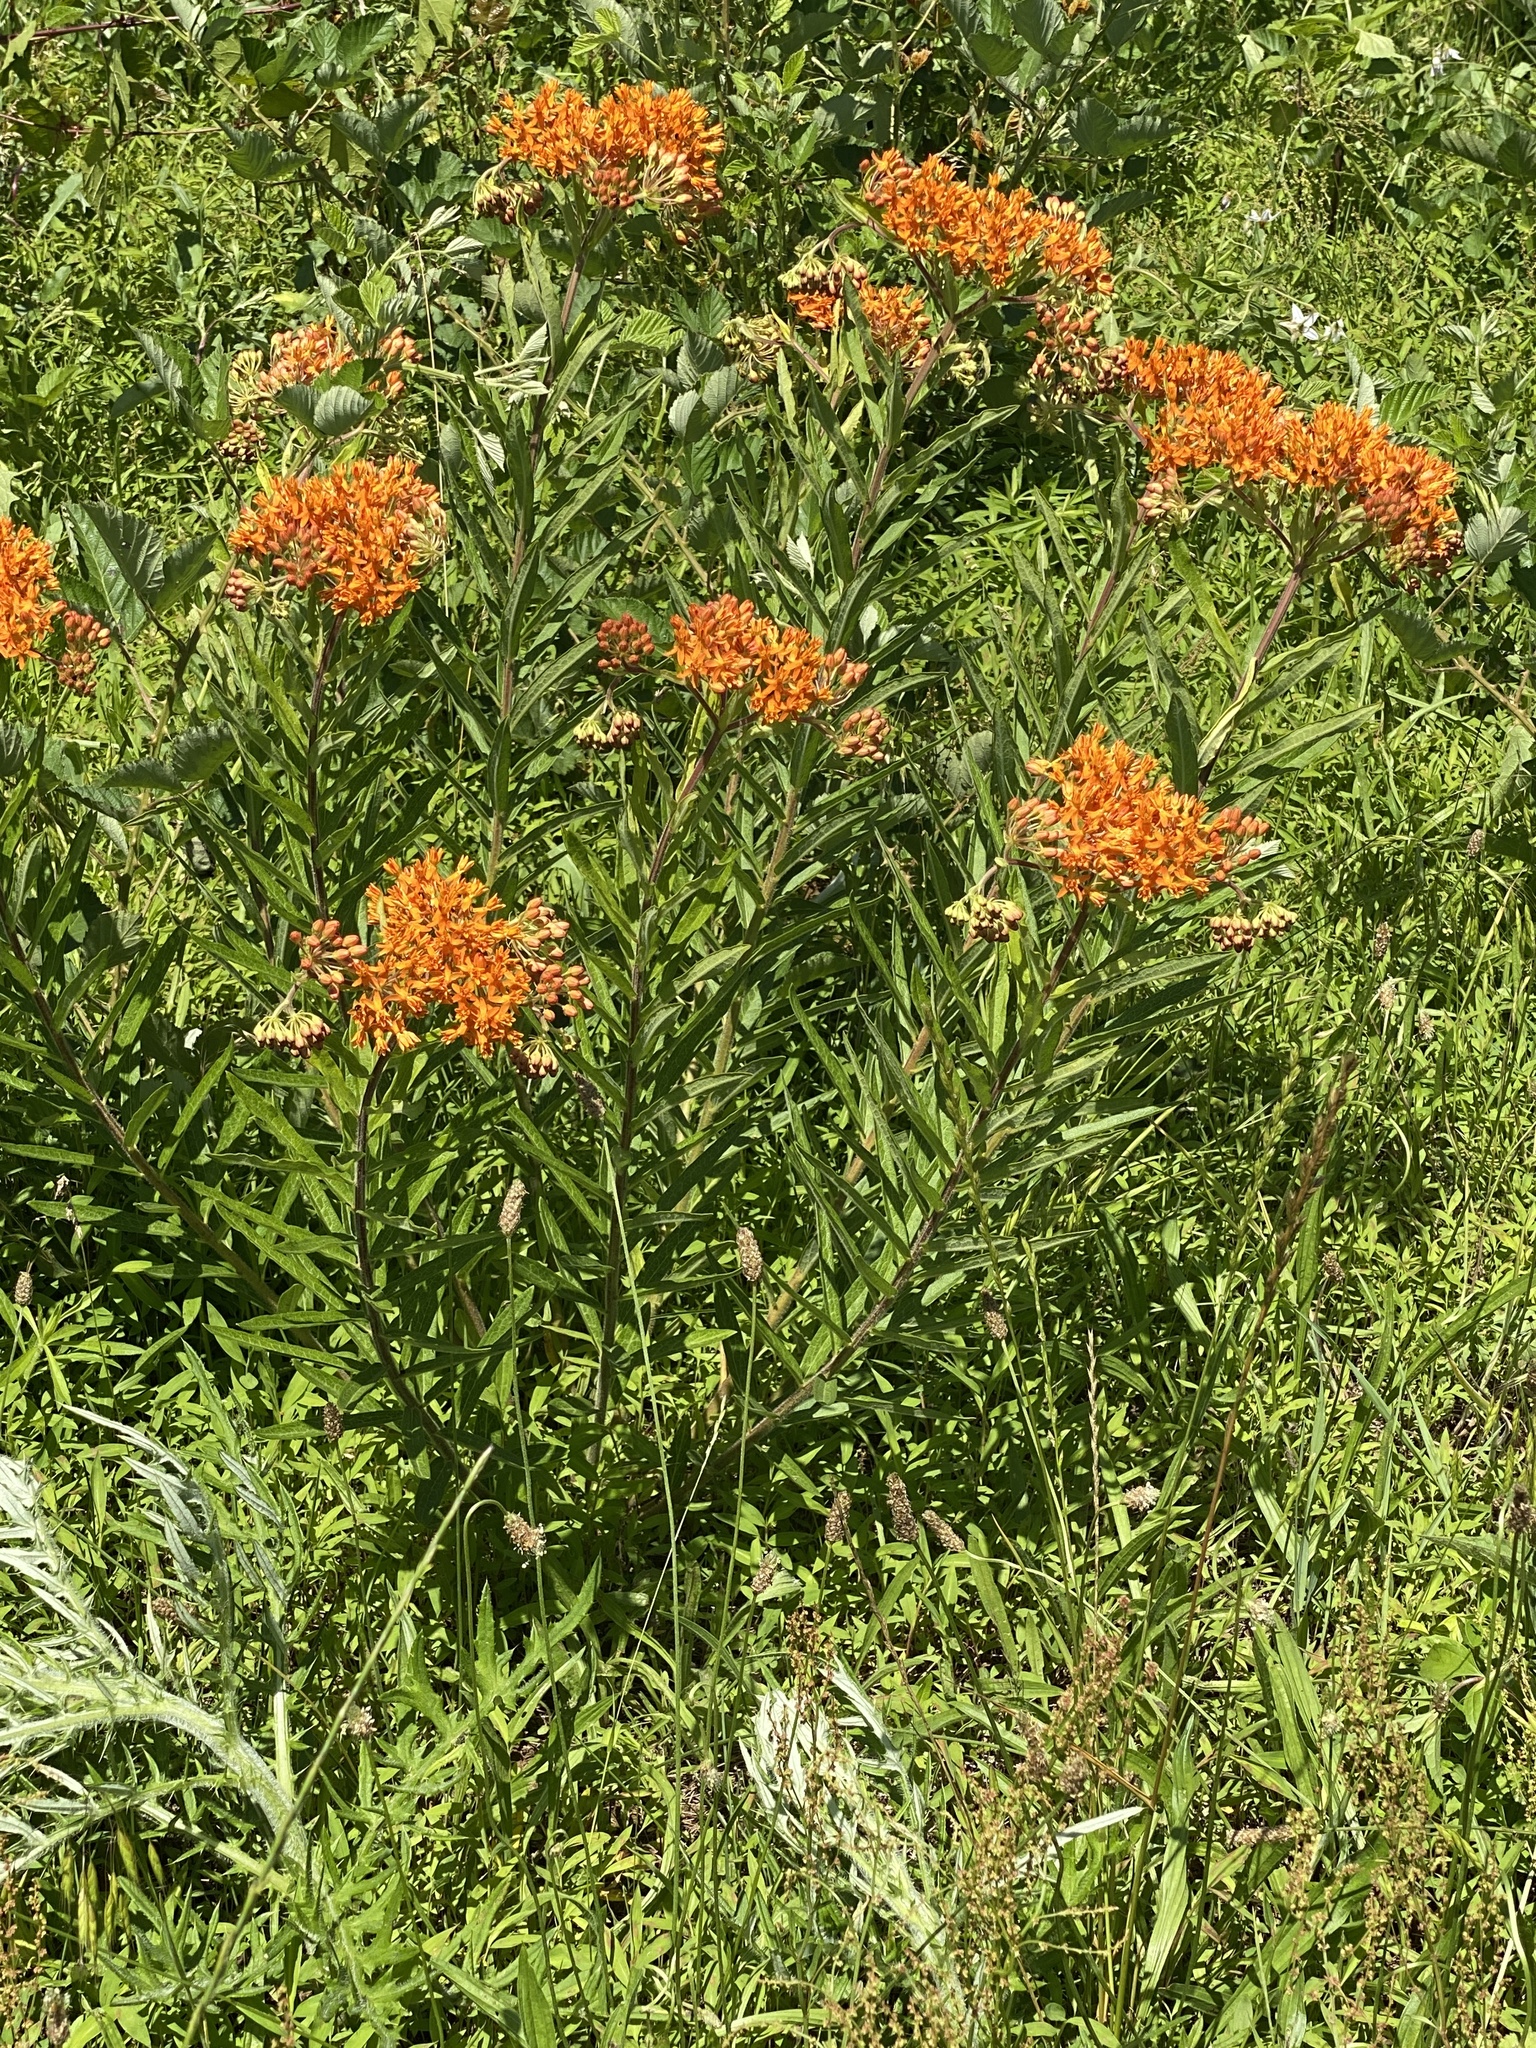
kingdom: Plantae
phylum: Tracheophyta
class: Magnoliopsida
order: Gentianales
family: Apocynaceae
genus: Asclepias
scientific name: Asclepias tuberosa
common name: Butterfly milkweed
